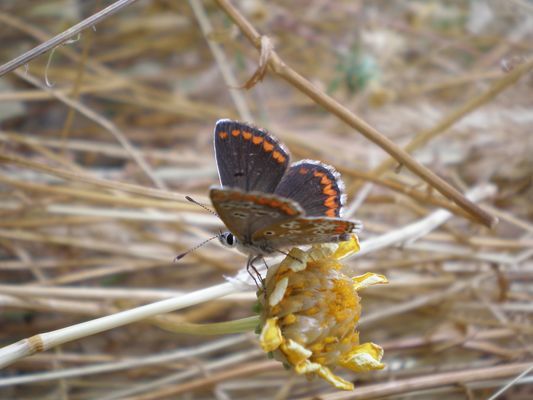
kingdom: Animalia
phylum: Arthropoda
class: Insecta
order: Lepidoptera
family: Lycaenidae
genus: Aricia
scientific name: Aricia cramera
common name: Eschscholtz´s brown  argus
